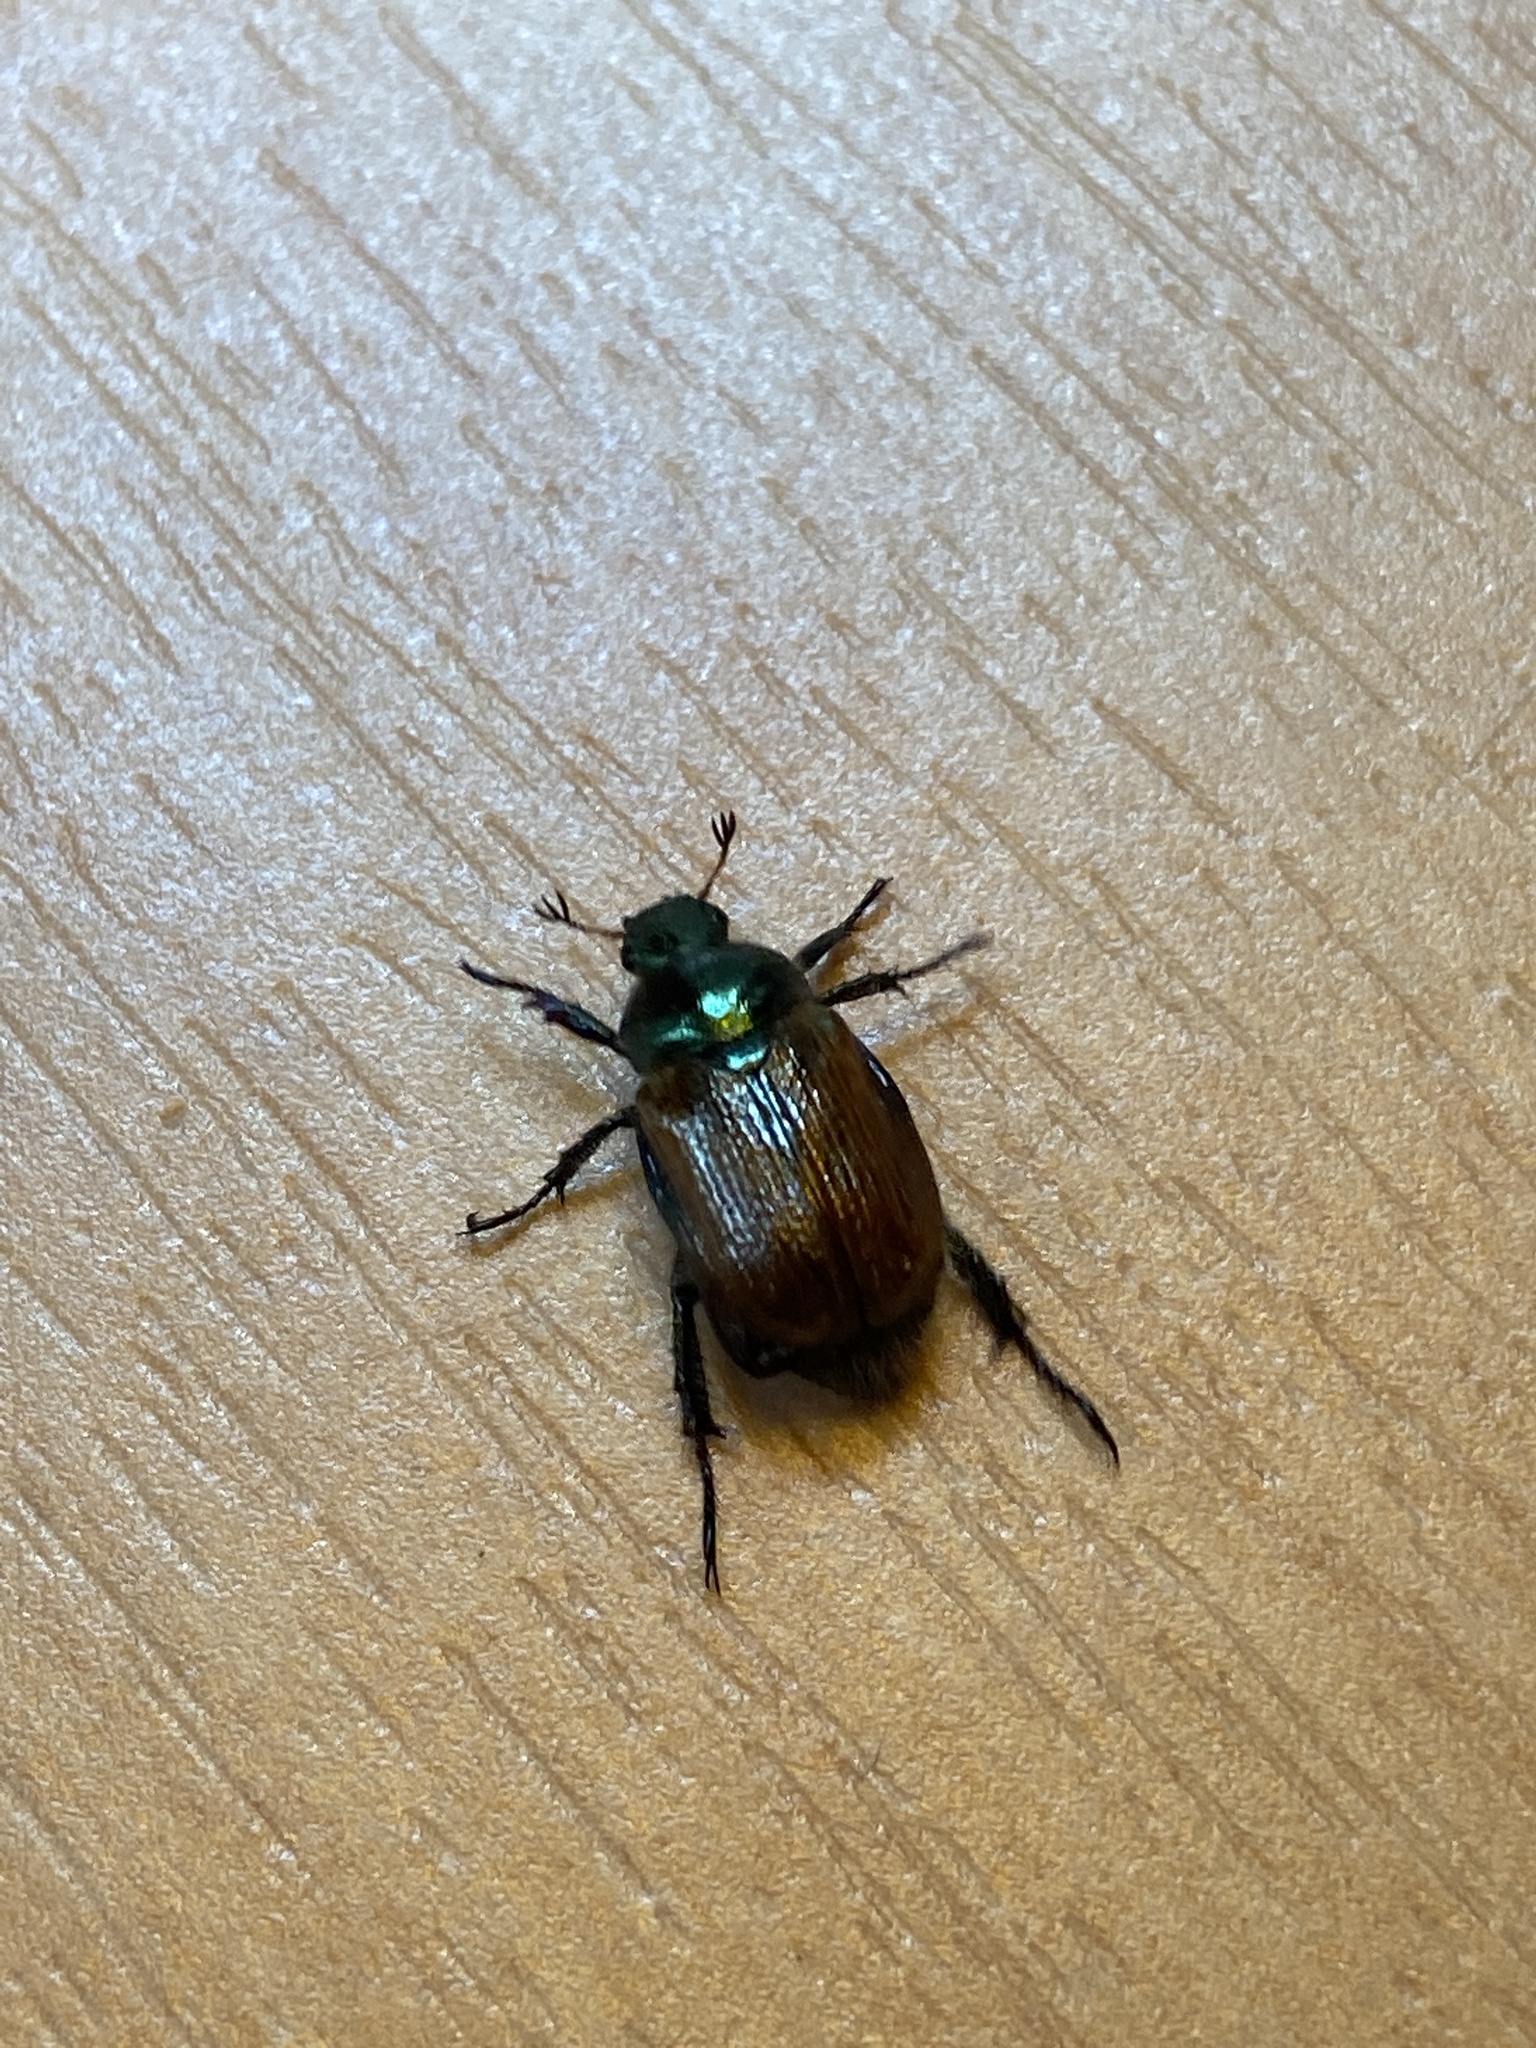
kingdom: Animalia
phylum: Arthropoda
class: Insecta
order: Coleoptera
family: Scarabaeidae
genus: Phyllopertha
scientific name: Phyllopertha horticola
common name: Garden chafer
